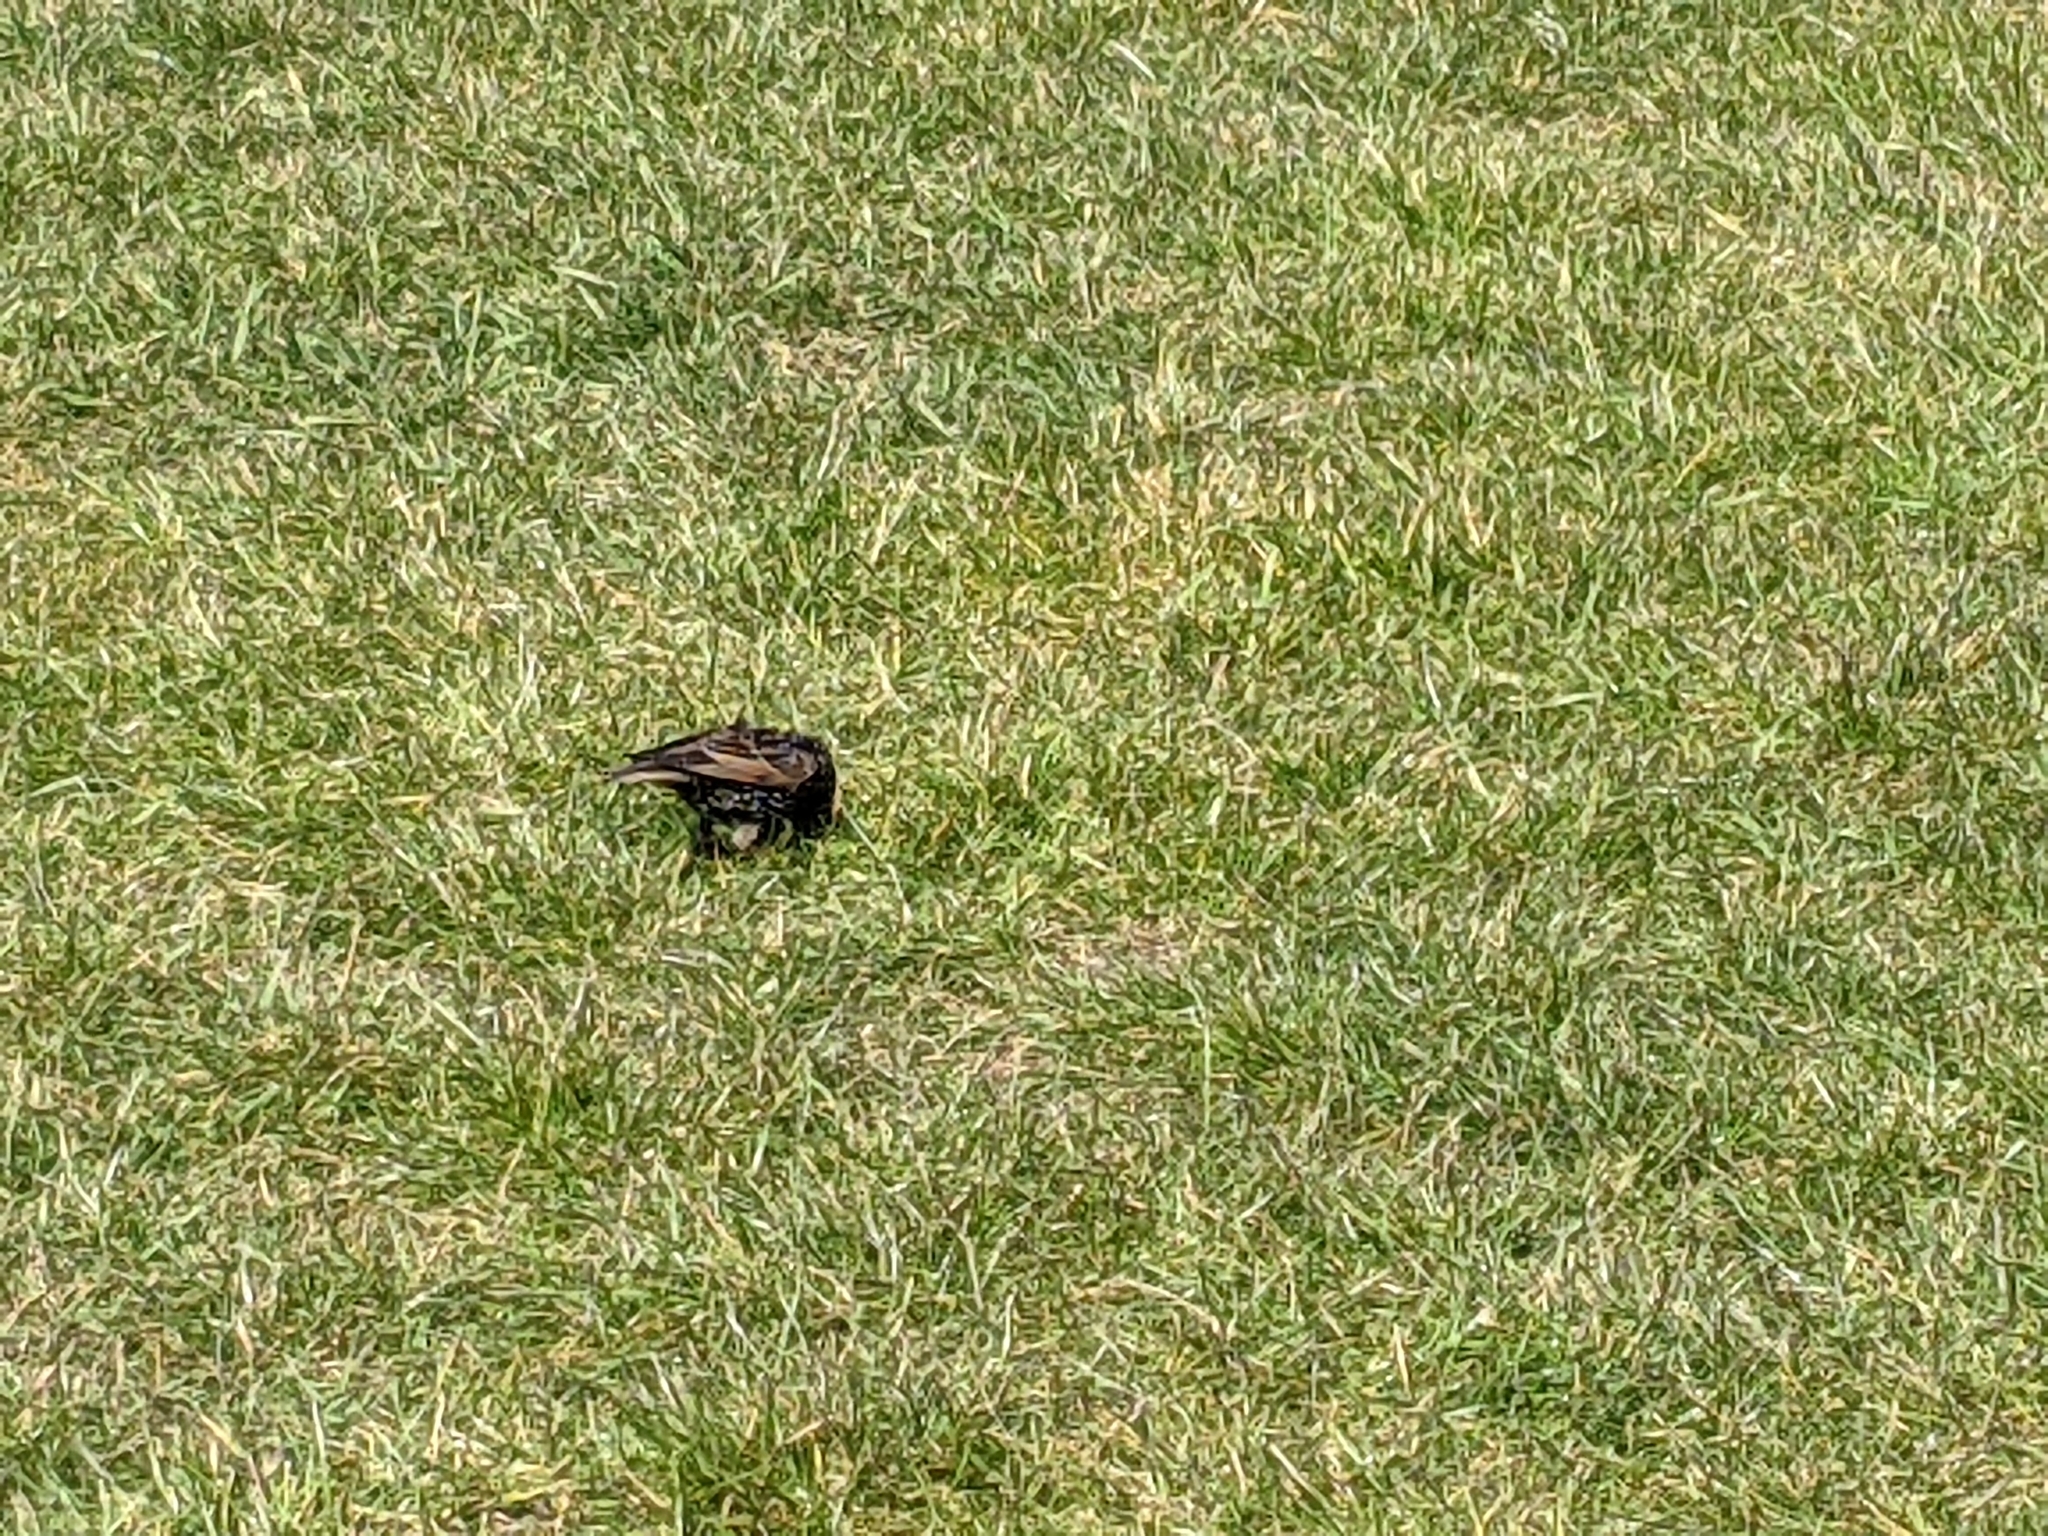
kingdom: Animalia
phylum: Chordata
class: Aves
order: Passeriformes
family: Sturnidae
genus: Sturnus
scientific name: Sturnus vulgaris
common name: Common starling
